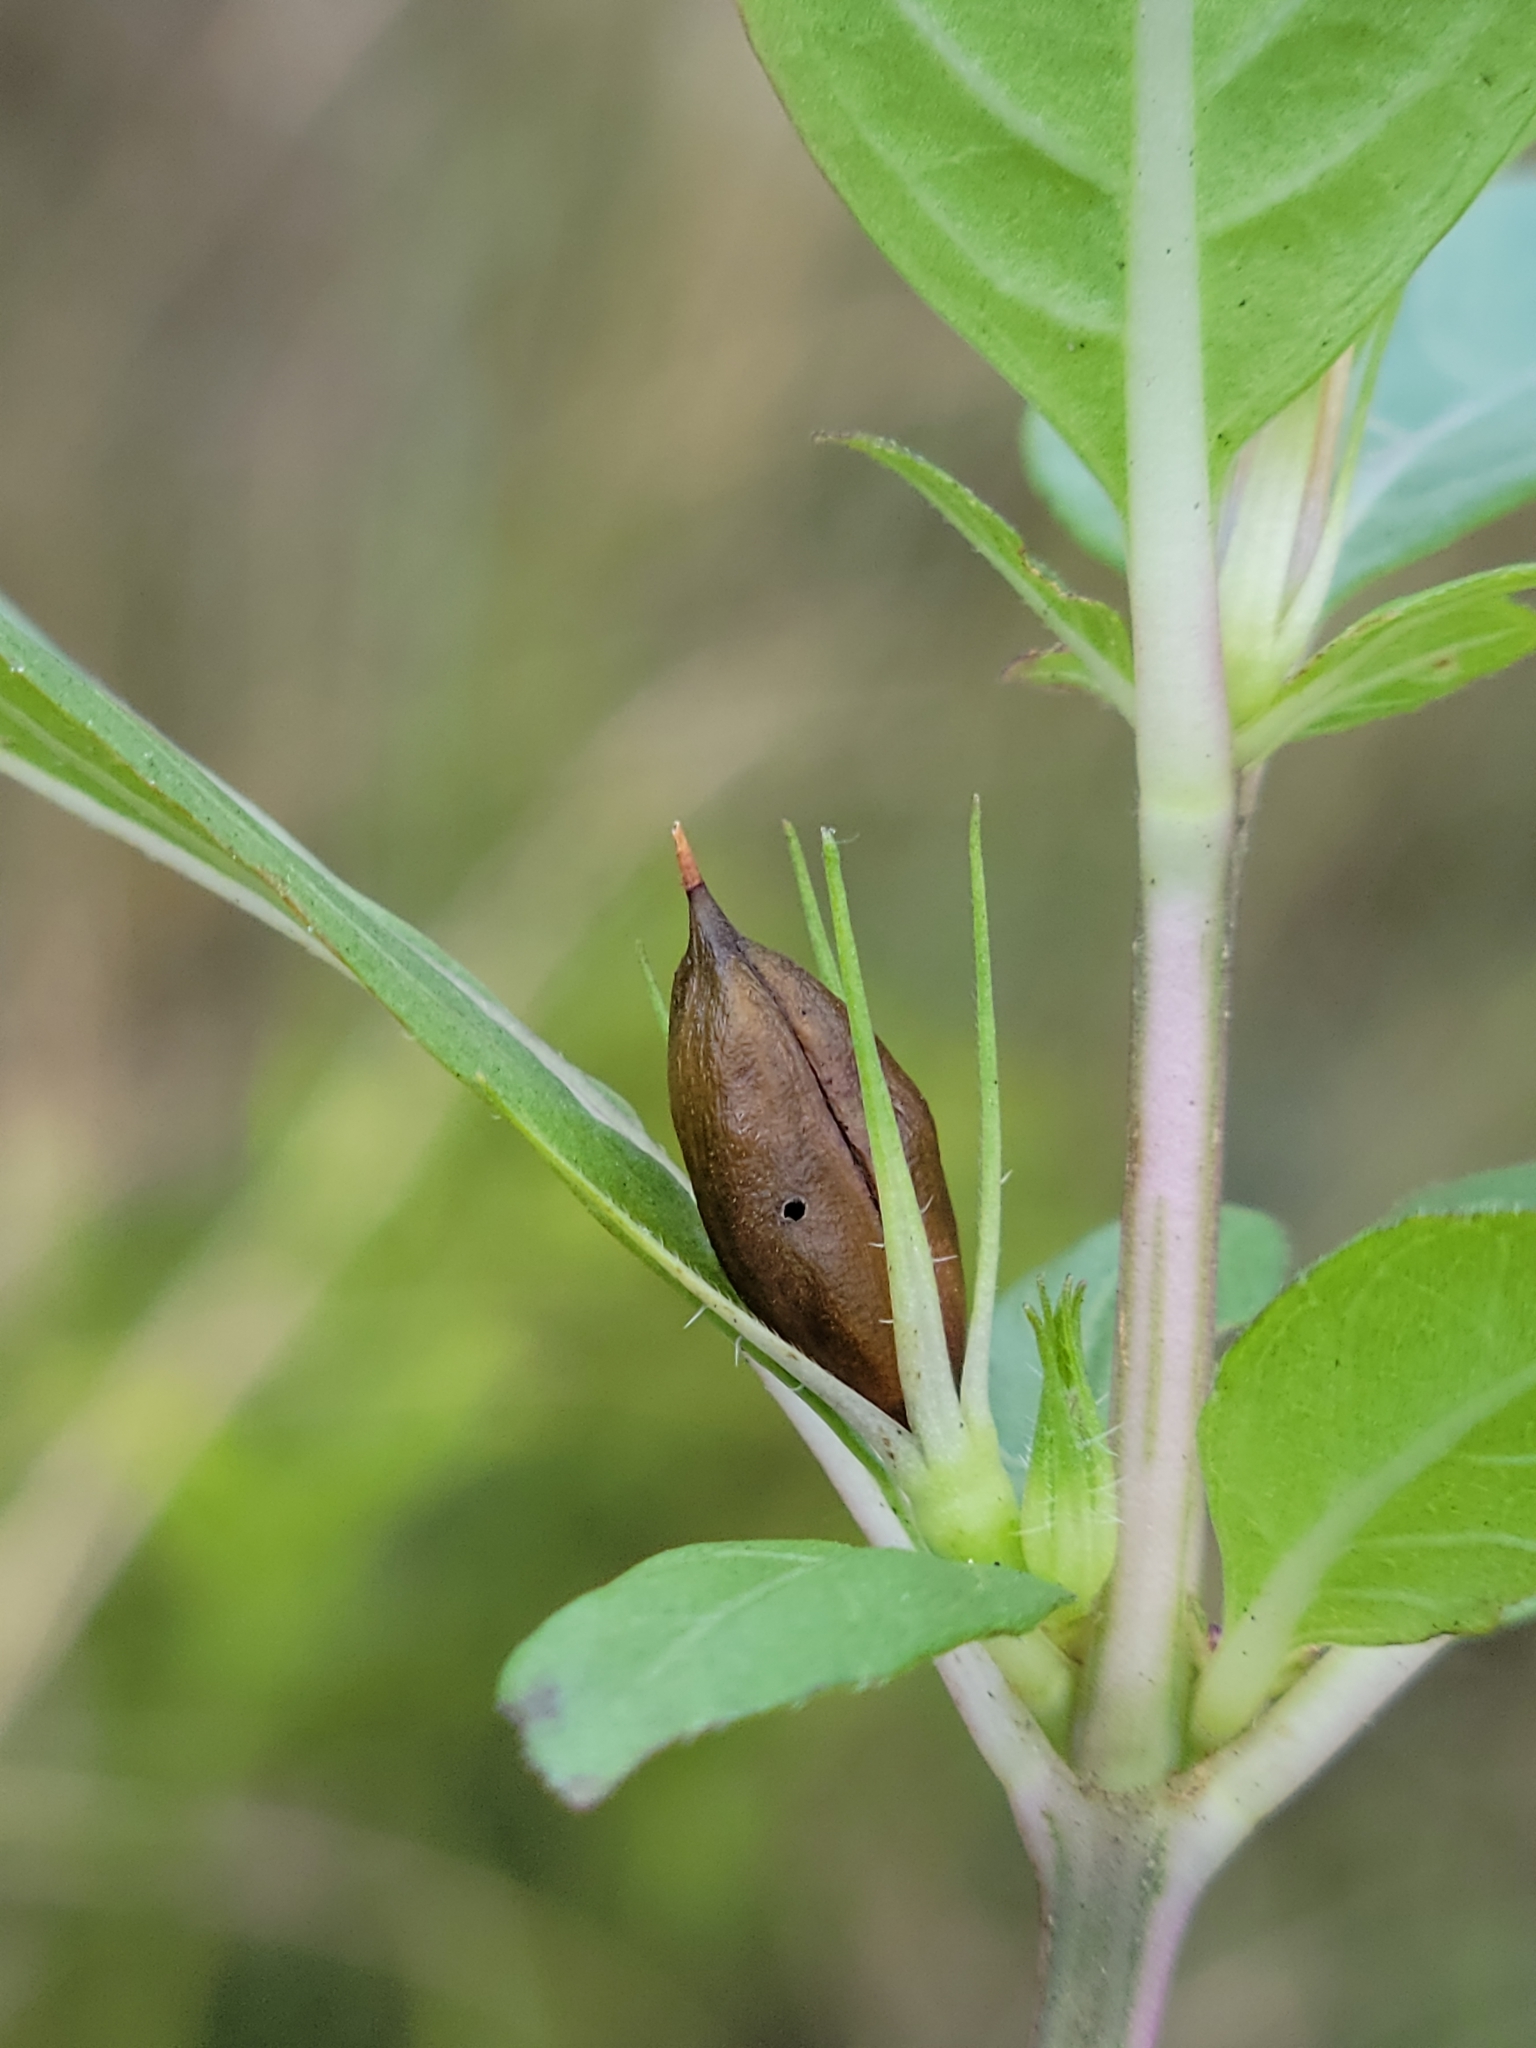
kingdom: Plantae
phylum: Tracheophyta
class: Magnoliopsida
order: Lamiales
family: Acanthaceae
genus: Ruellia
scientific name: Ruellia caroliniensis
